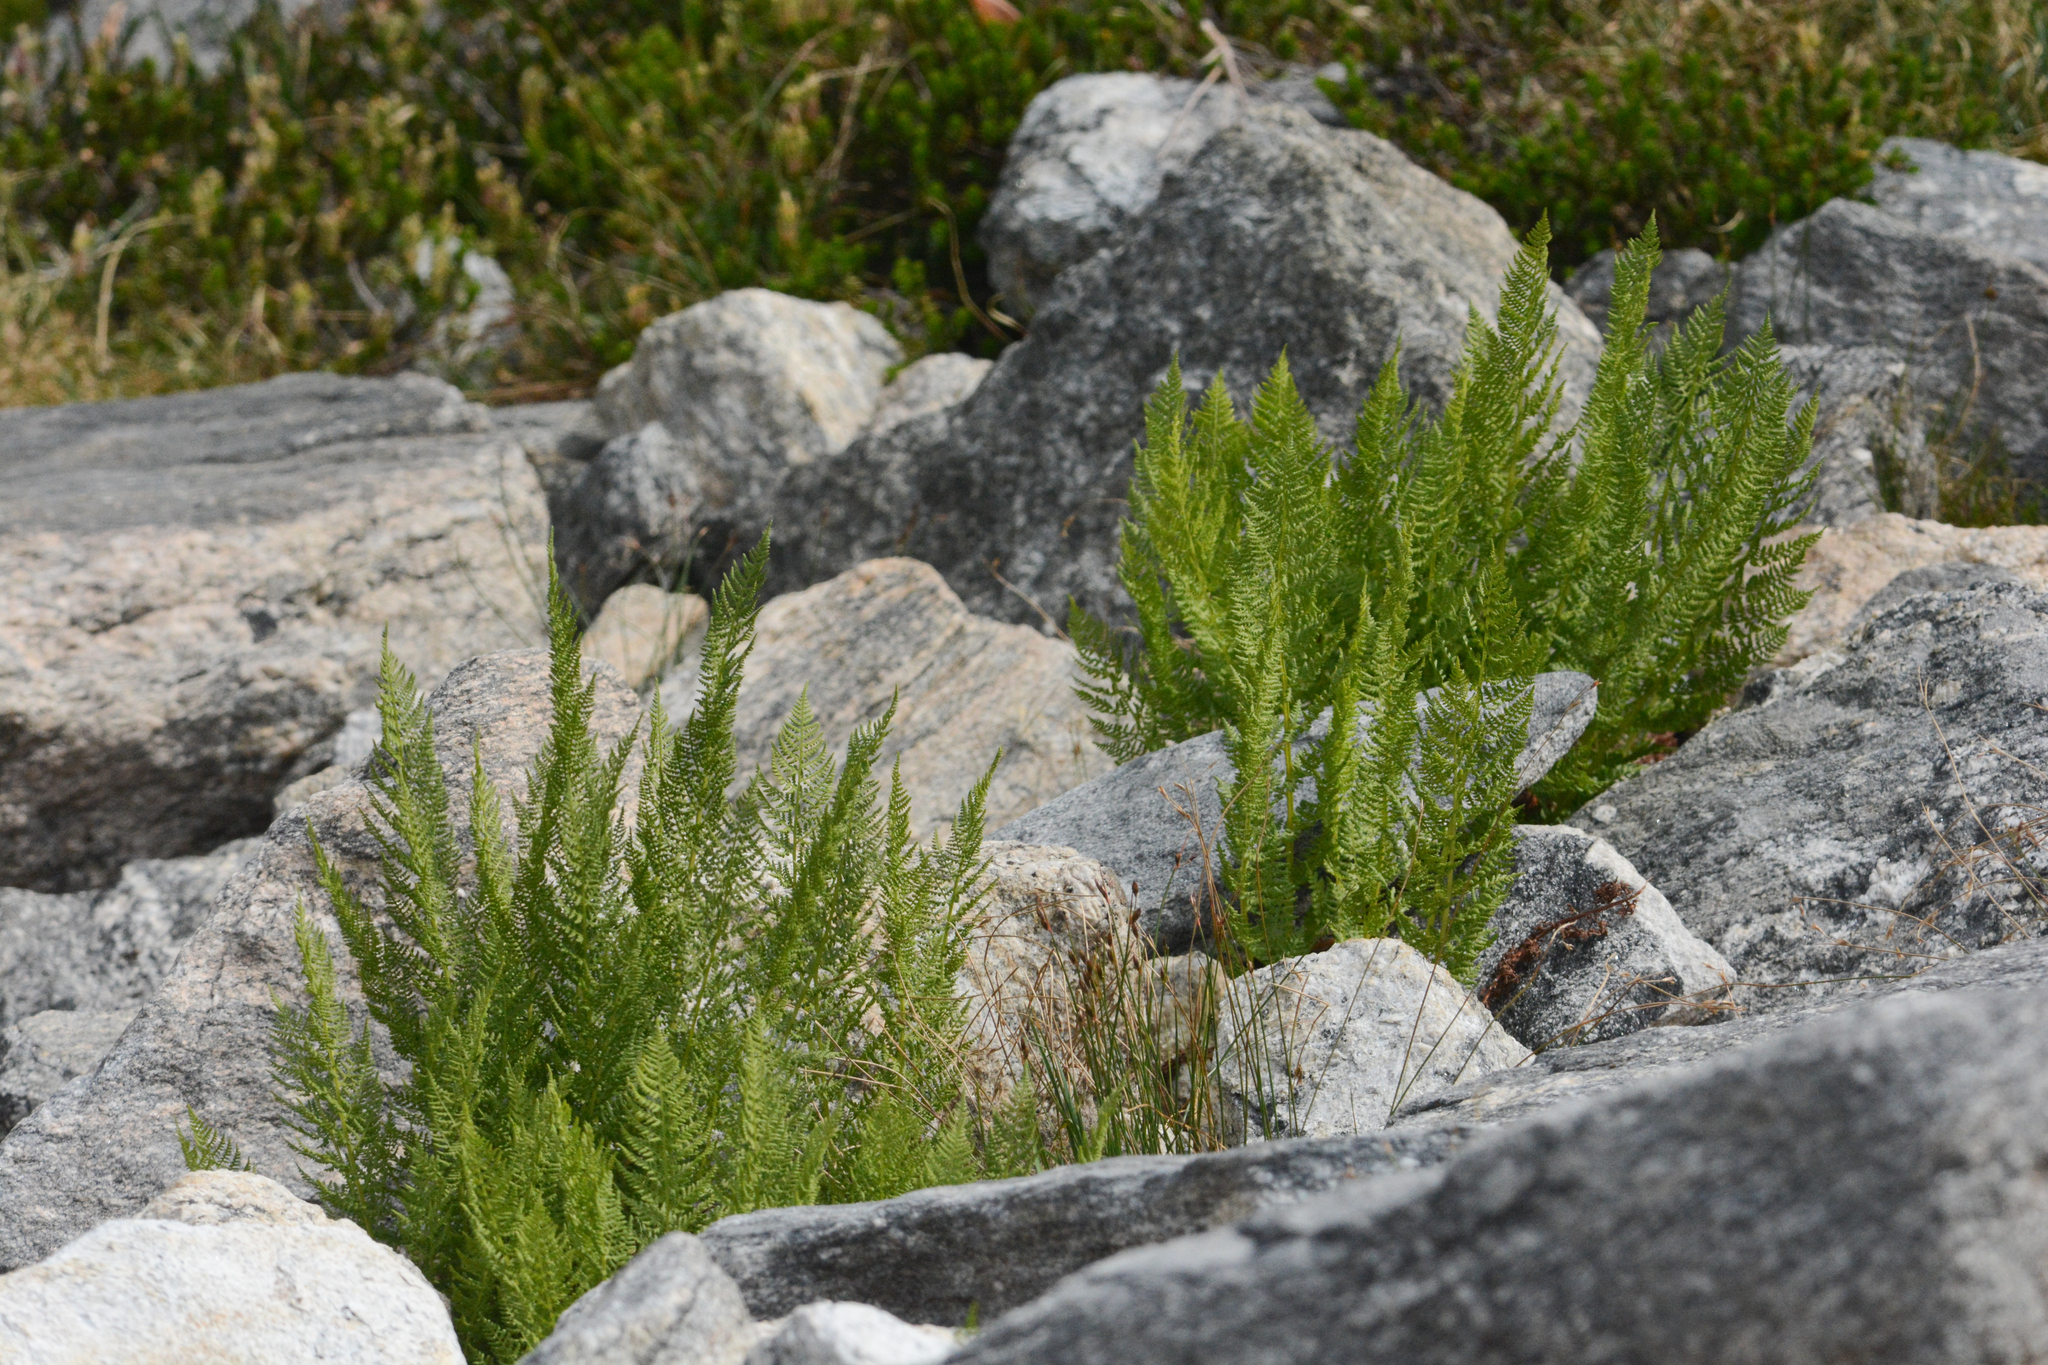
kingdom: Plantae
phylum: Tracheophyta
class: Polypodiopsida
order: Polypodiales
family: Athyriaceae
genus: Athyrium
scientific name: Athyrium americanum
